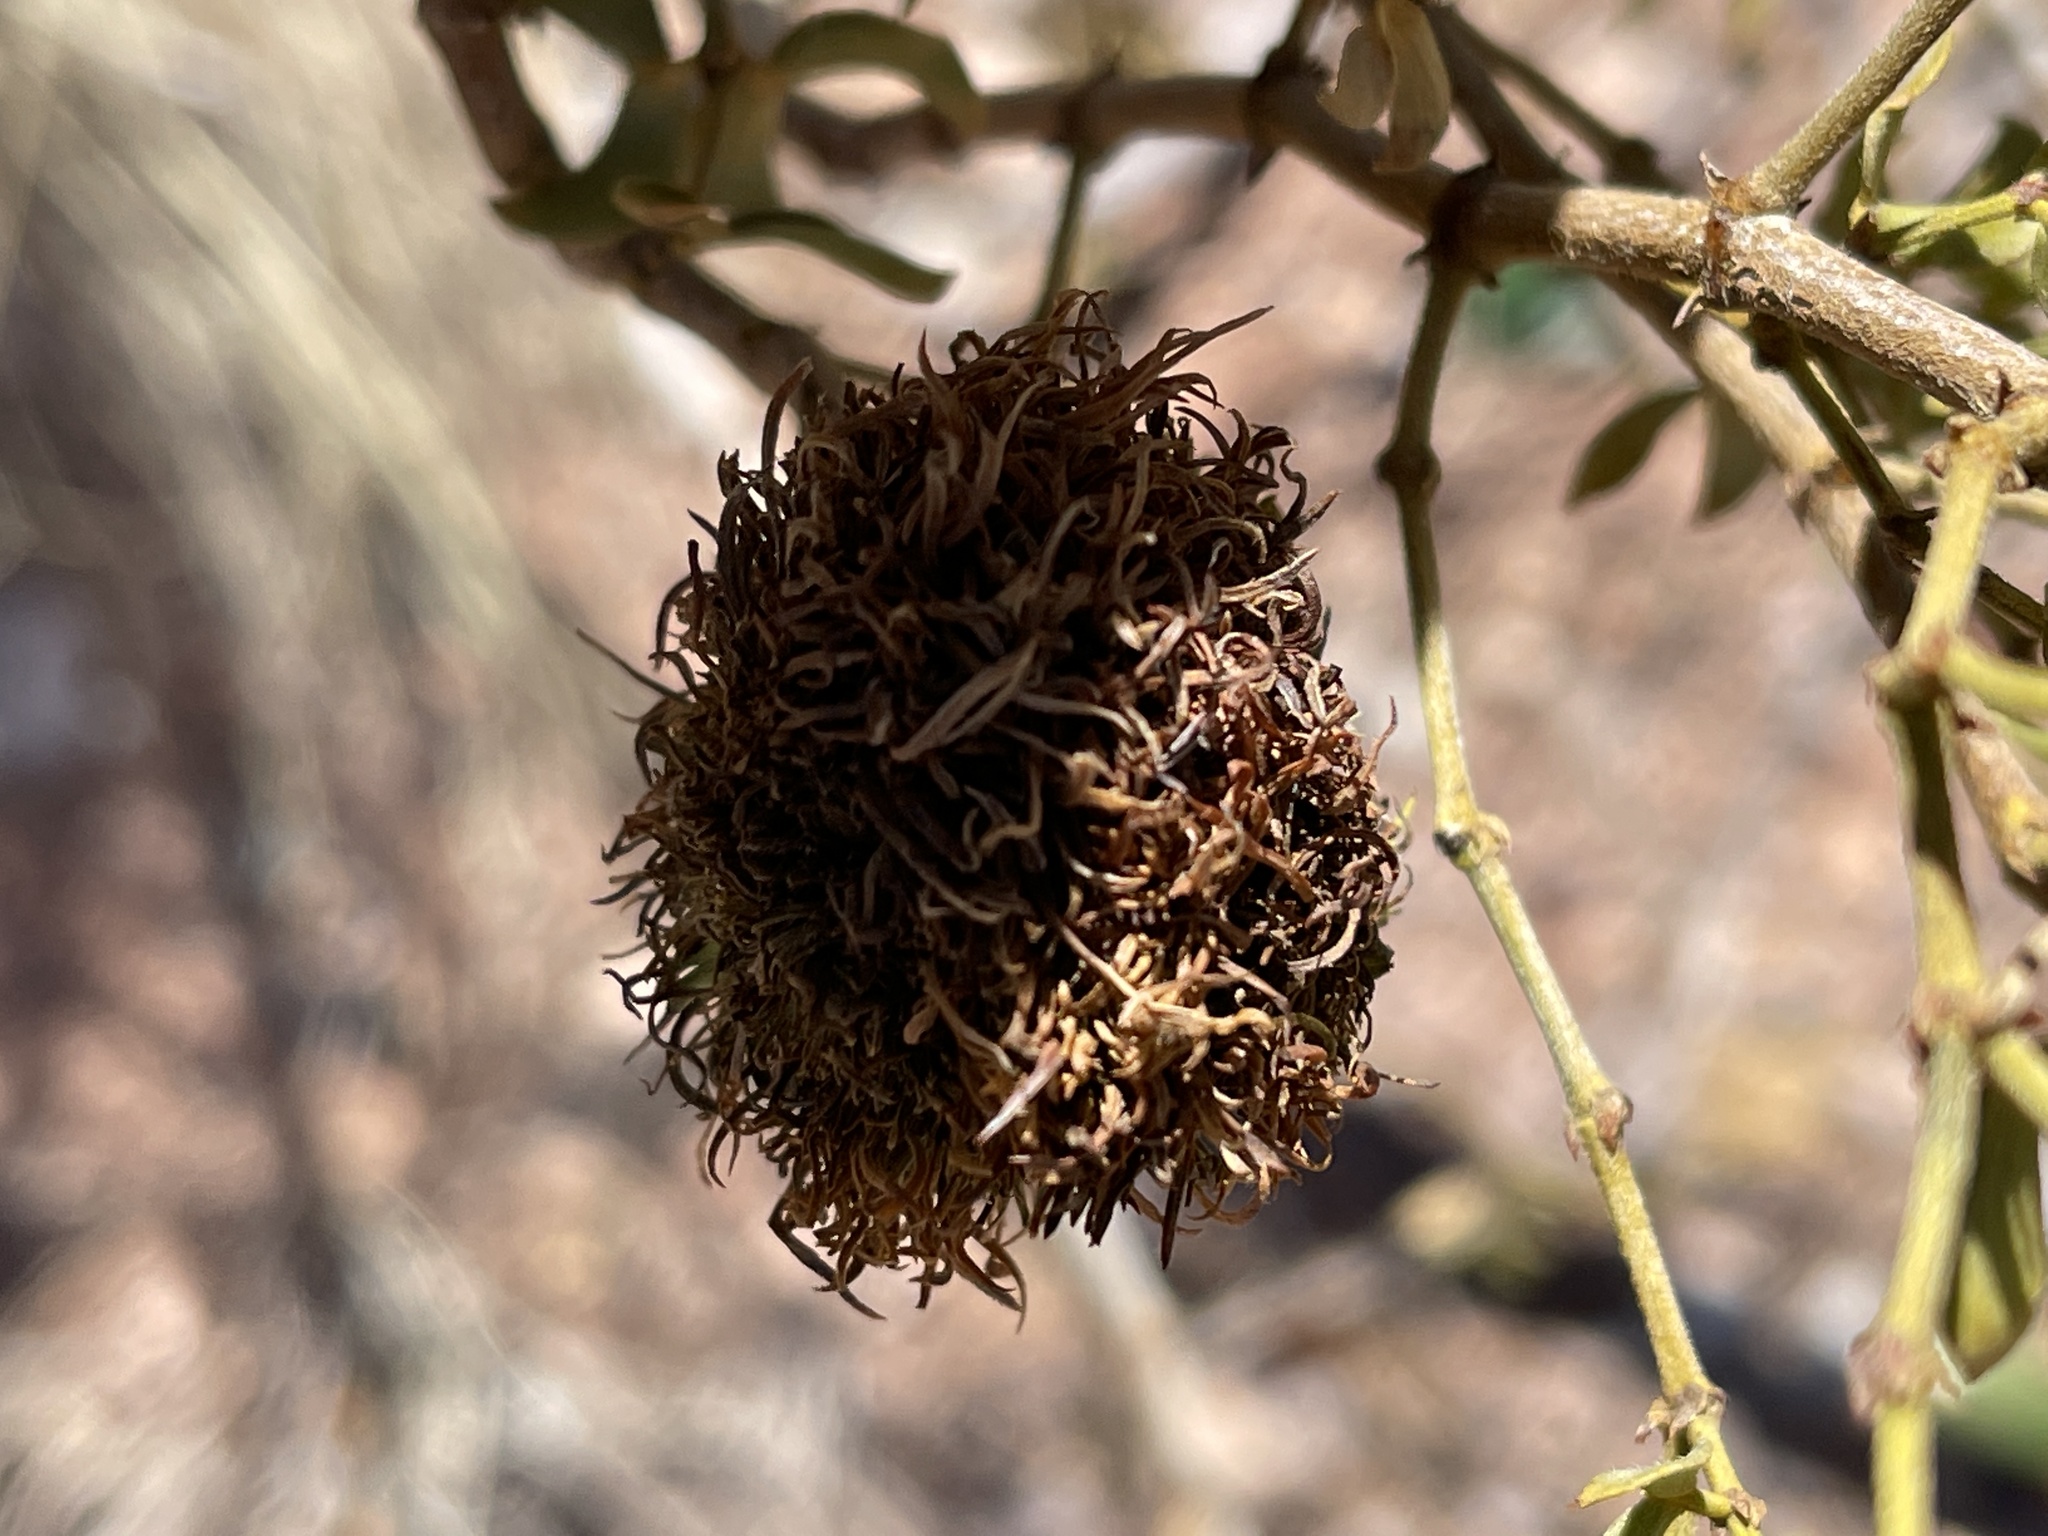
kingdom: Animalia
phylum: Arthropoda
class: Insecta
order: Diptera
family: Cecidomyiidae
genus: Asphondylia
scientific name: Asphondylia auripila
